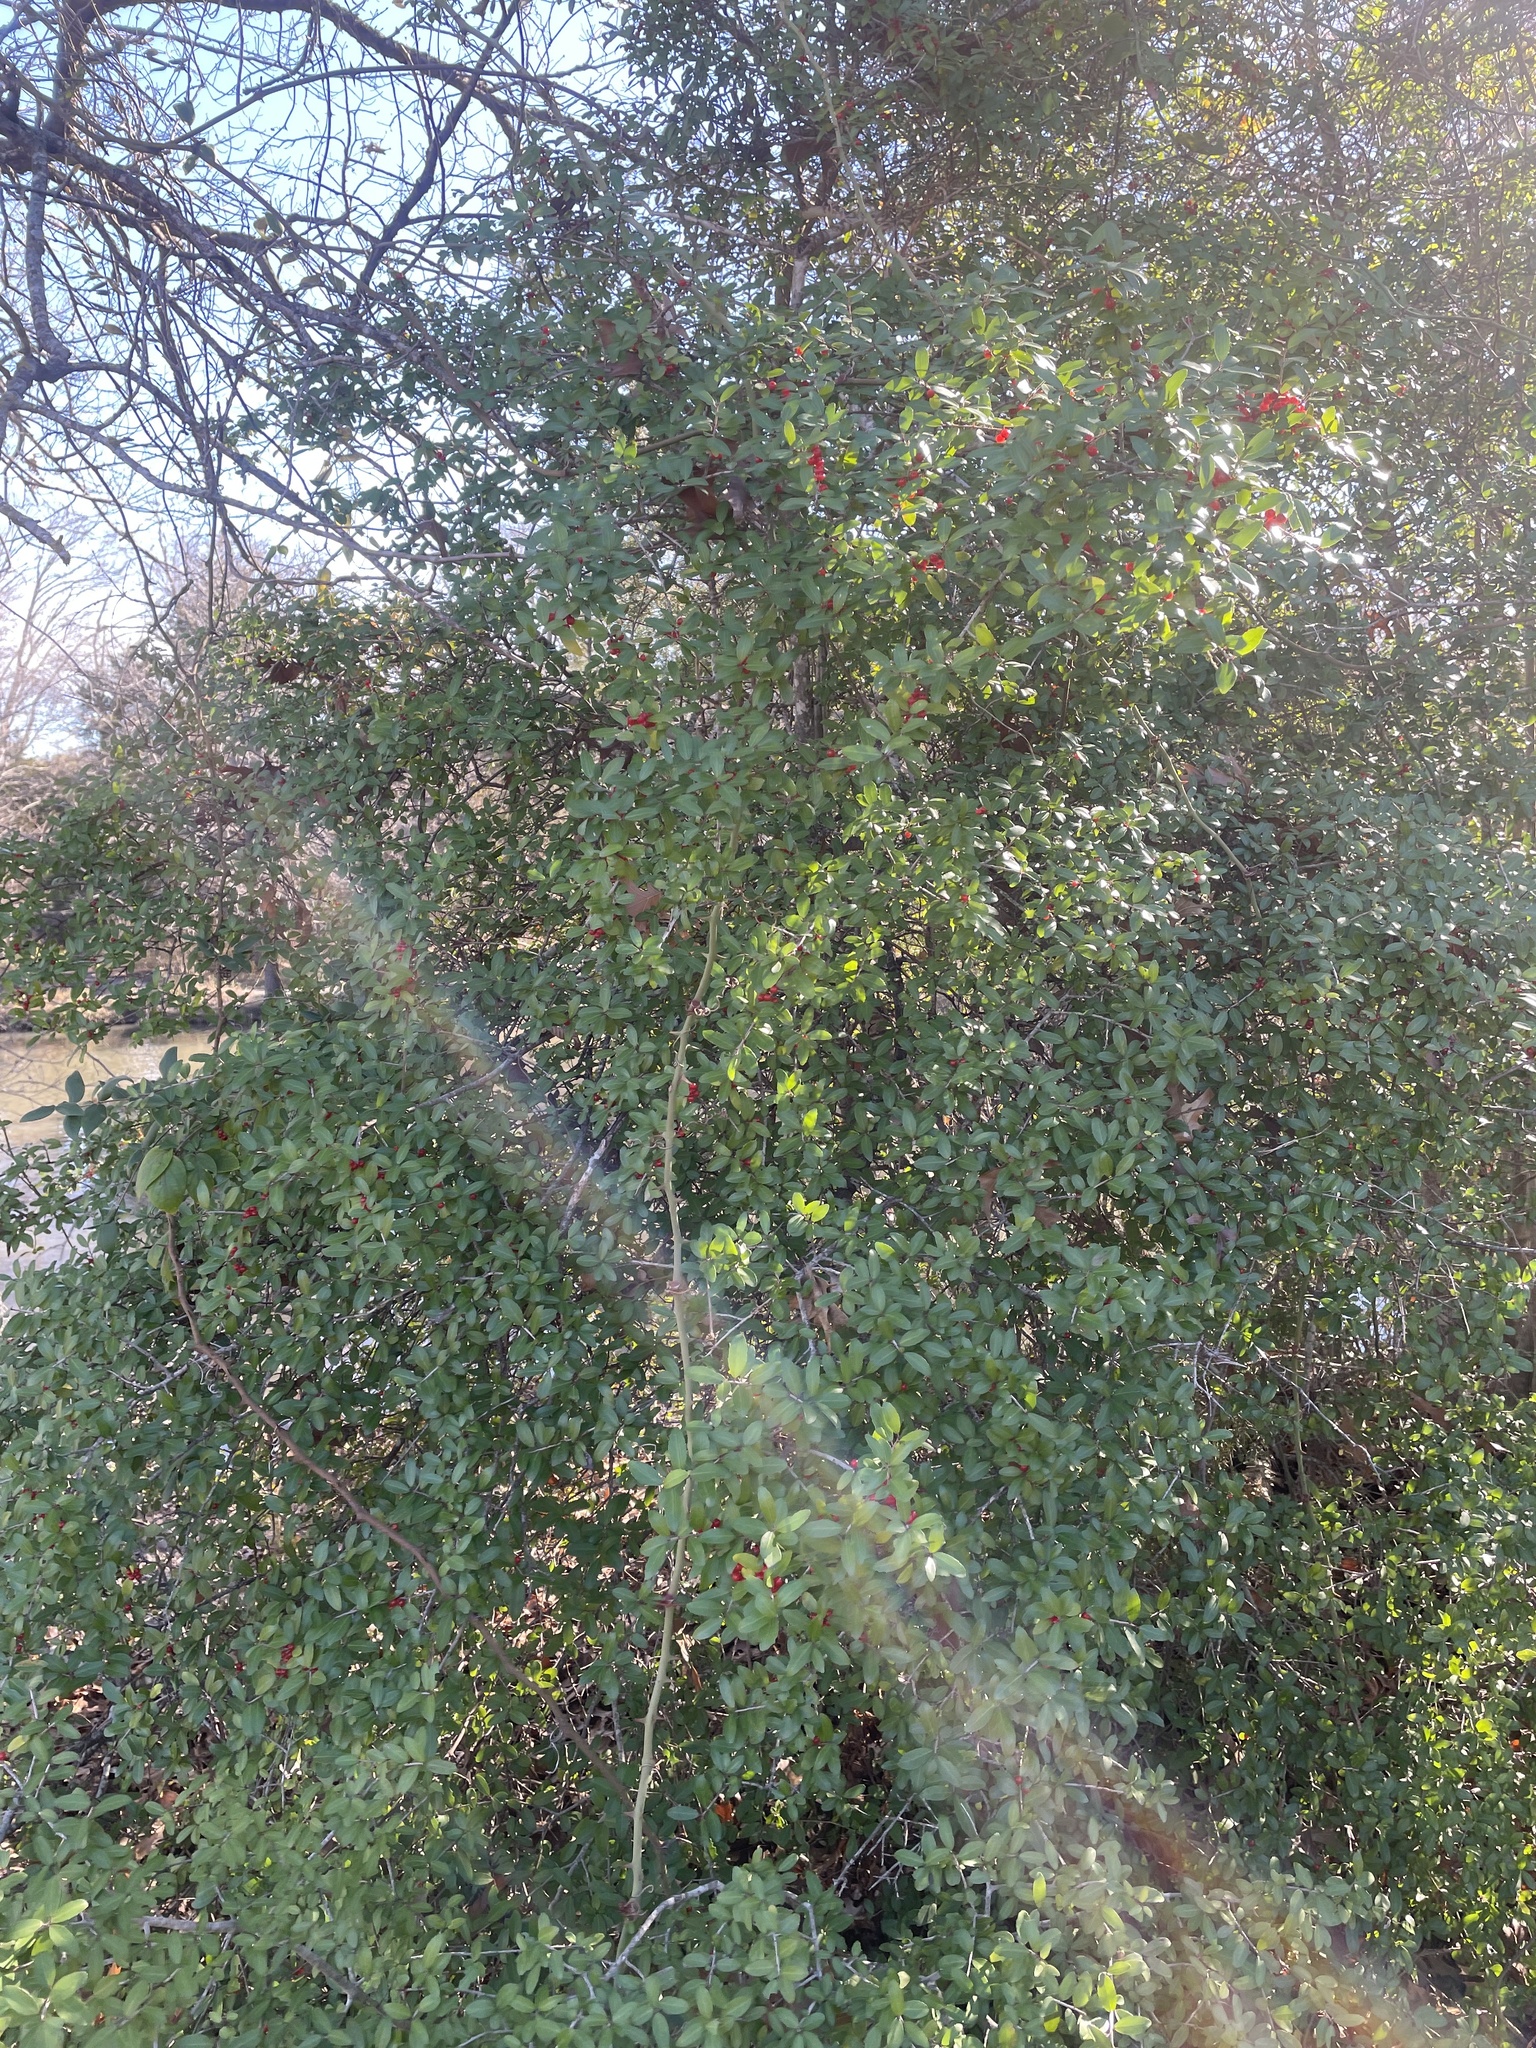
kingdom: Plantae
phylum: Tracheophyta
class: Magnoliopsida
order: Aquifoliales
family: Aquifoliaceae
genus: Ilex
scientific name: Ilex vomitoria
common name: Yaupon holly
